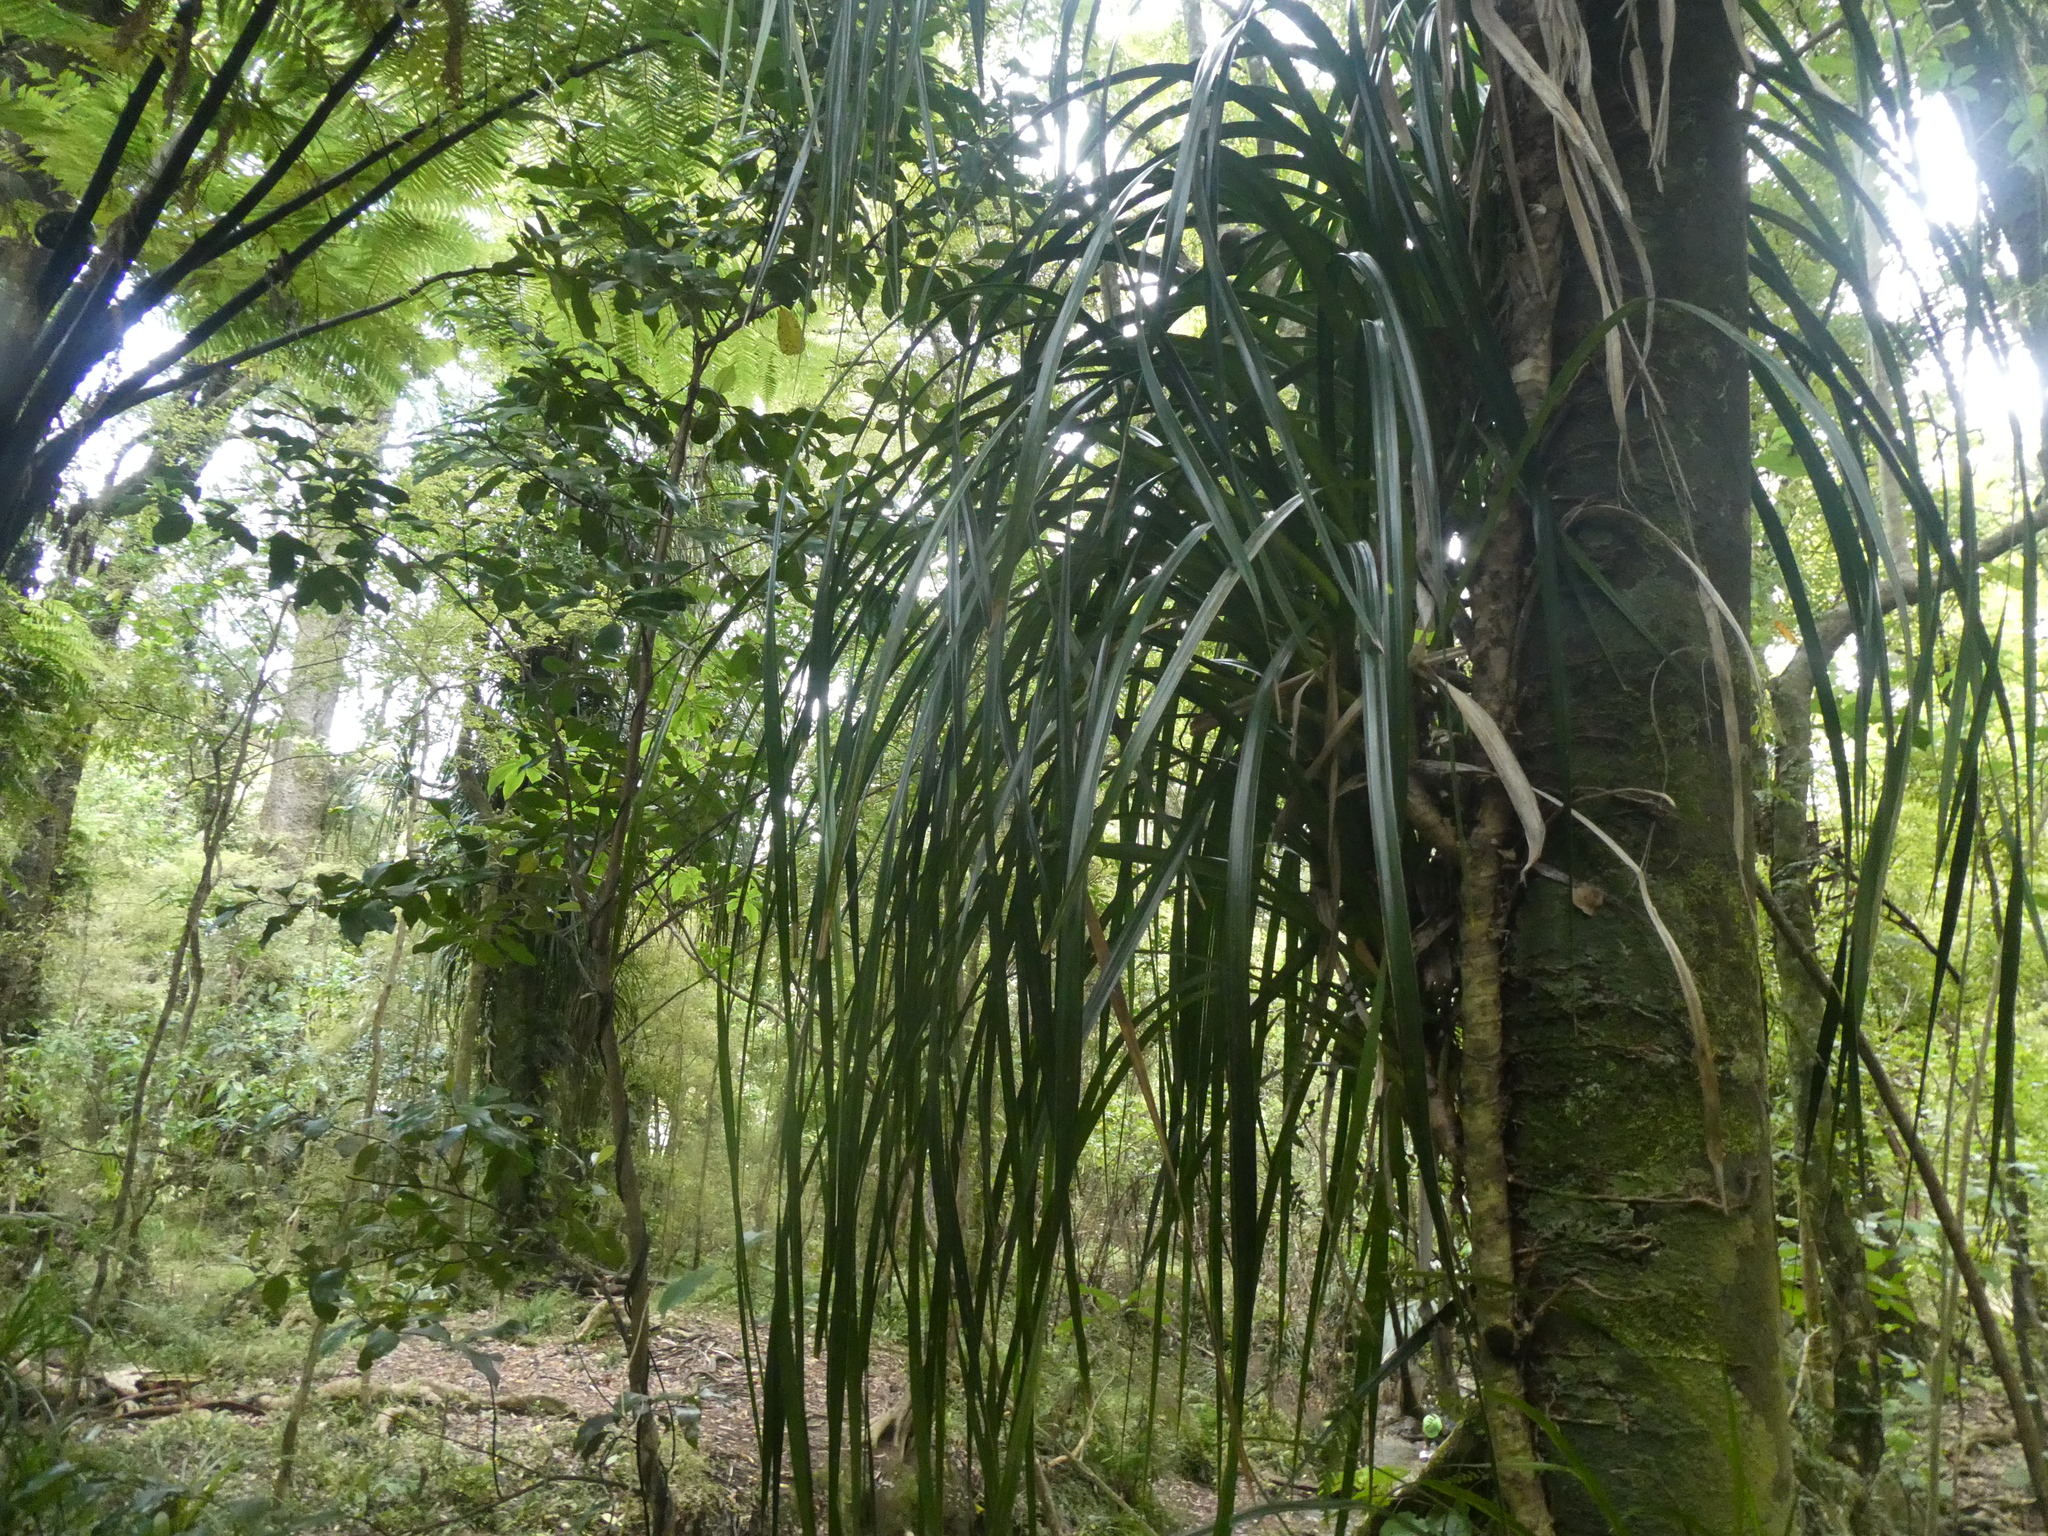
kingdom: Plantae
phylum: Tracheophyta
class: Liliopsida
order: Pandanales
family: Pandanaceae
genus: Freycinetia
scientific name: Freycinetia banksii
